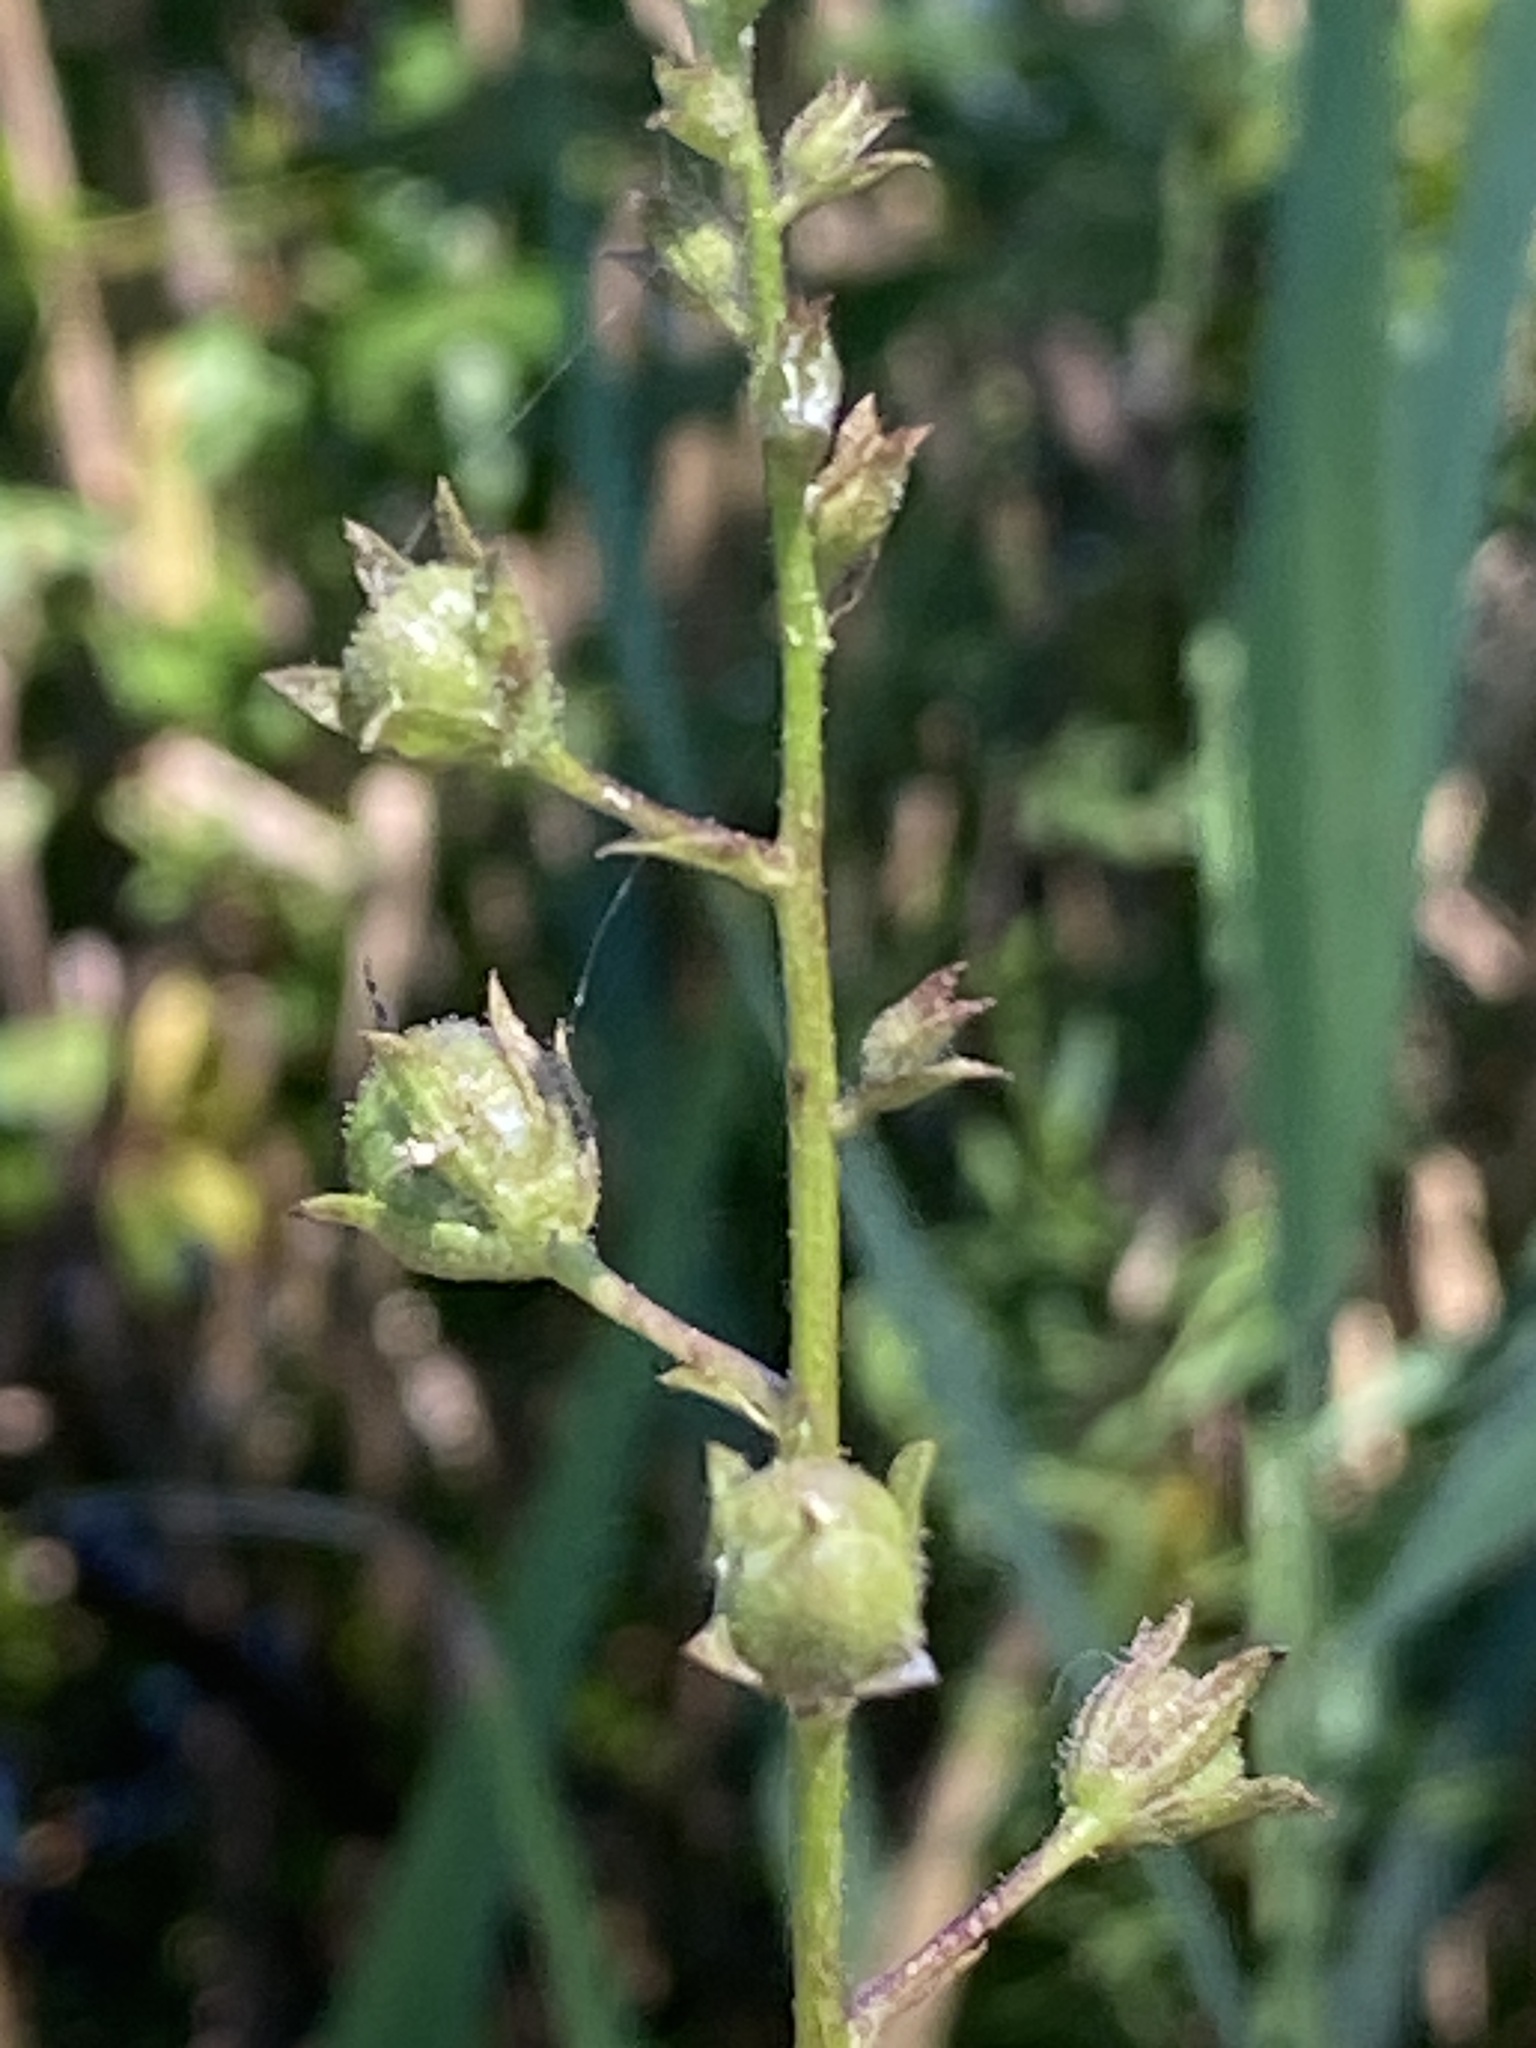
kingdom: Plantae
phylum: Tracheophyta
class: Magnoliopsida
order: Lamiales
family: Scrophulariaceae
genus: Verbascum
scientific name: Verbascum blattaria
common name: Moth mullein
